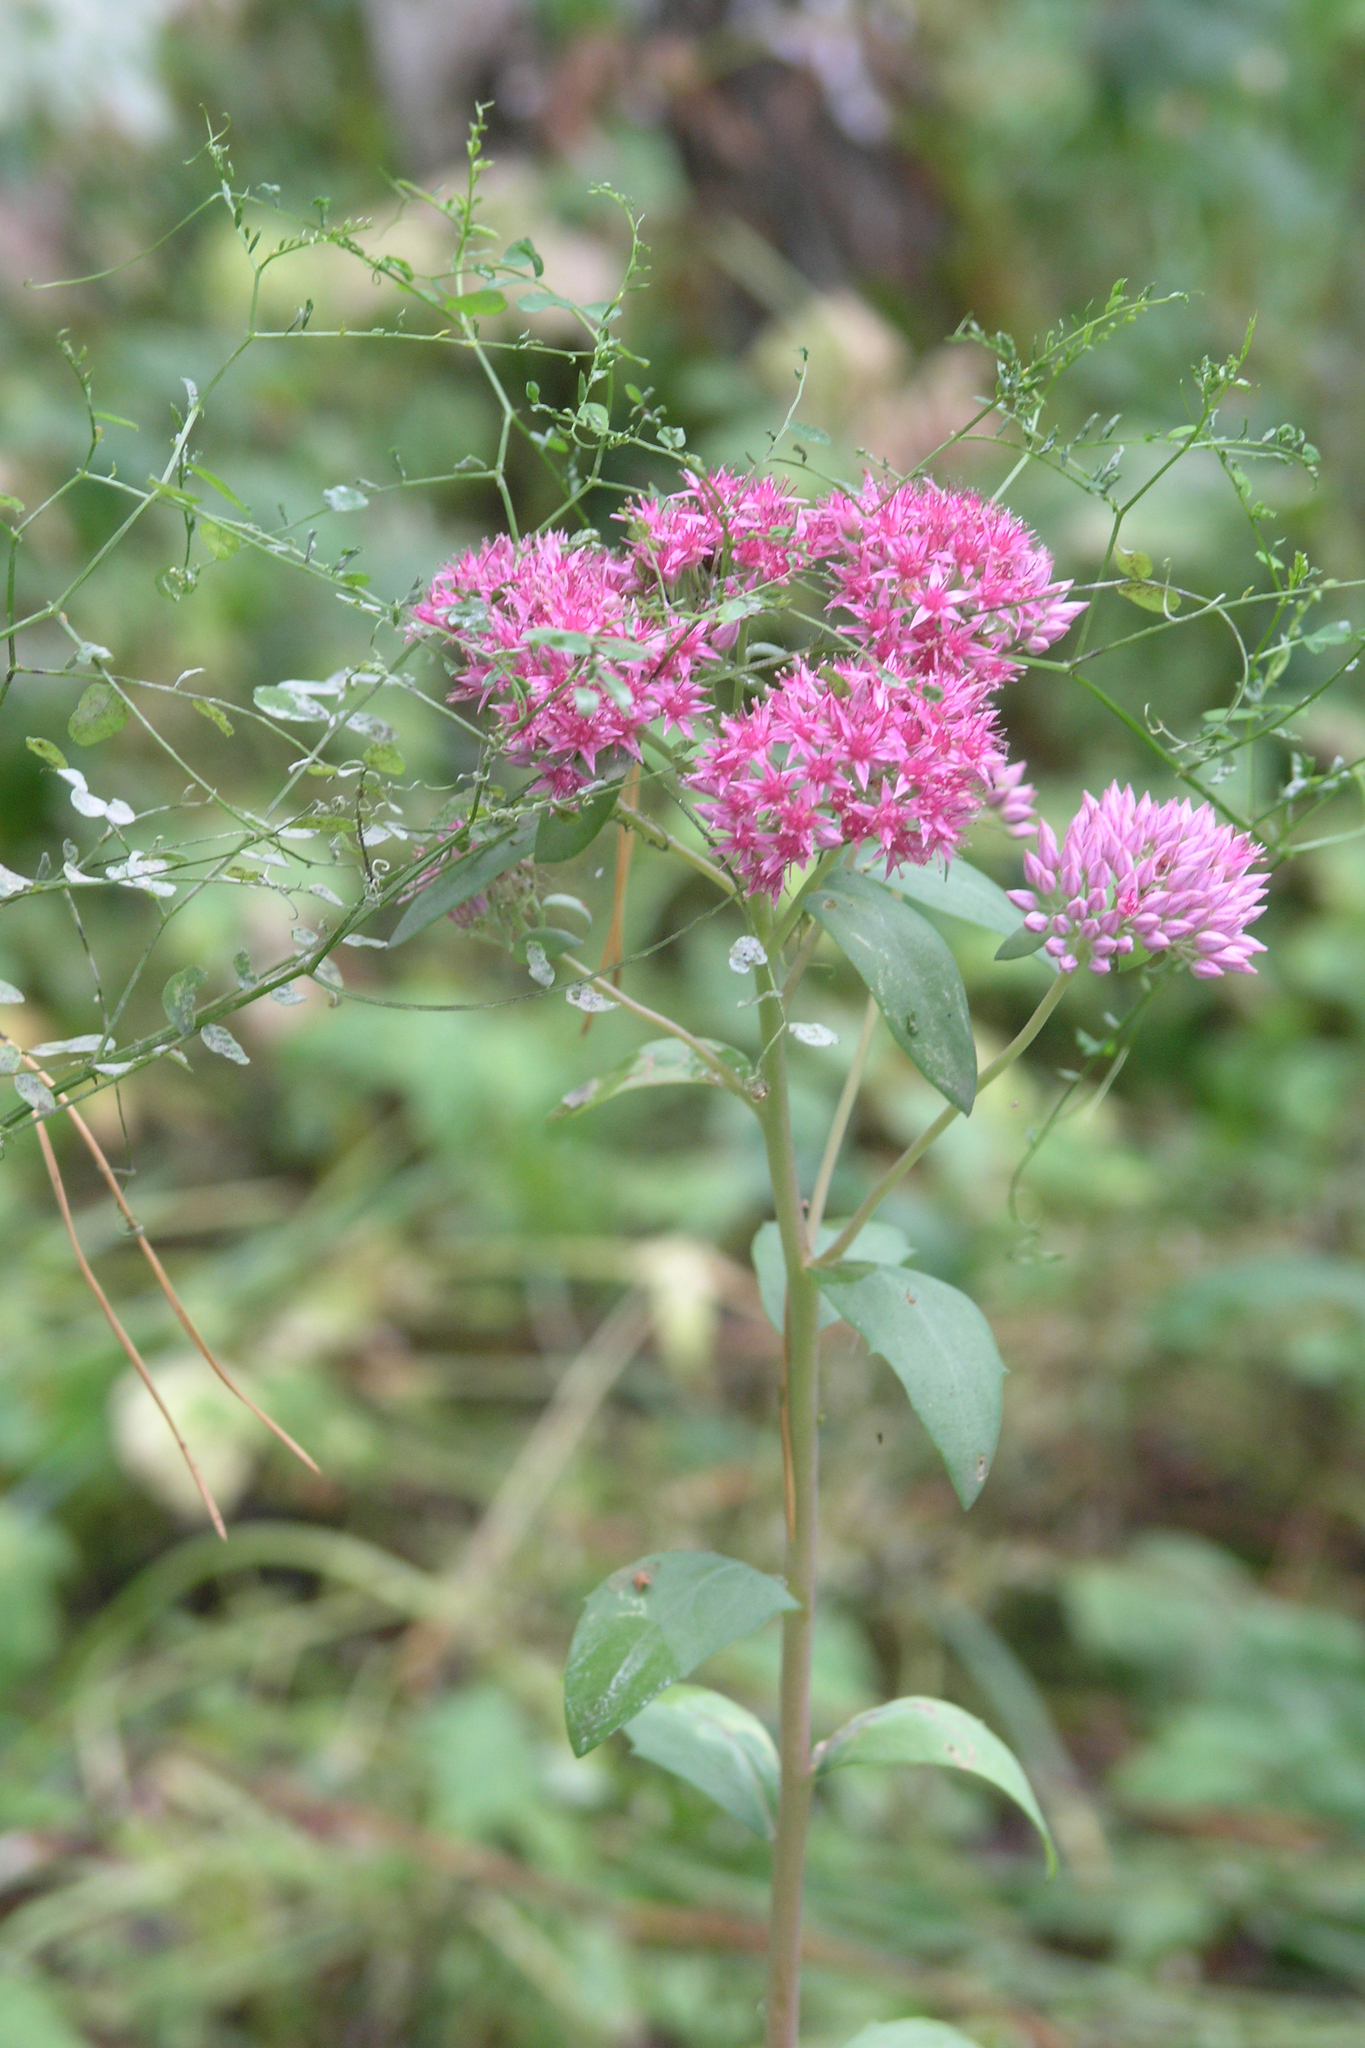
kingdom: Plantae
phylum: Tracheophyta
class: Magnoliopsida
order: Saxifragales
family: Crassulaceae
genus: Hylotelephium
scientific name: Hylotelephium telephium
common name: Live-forever
